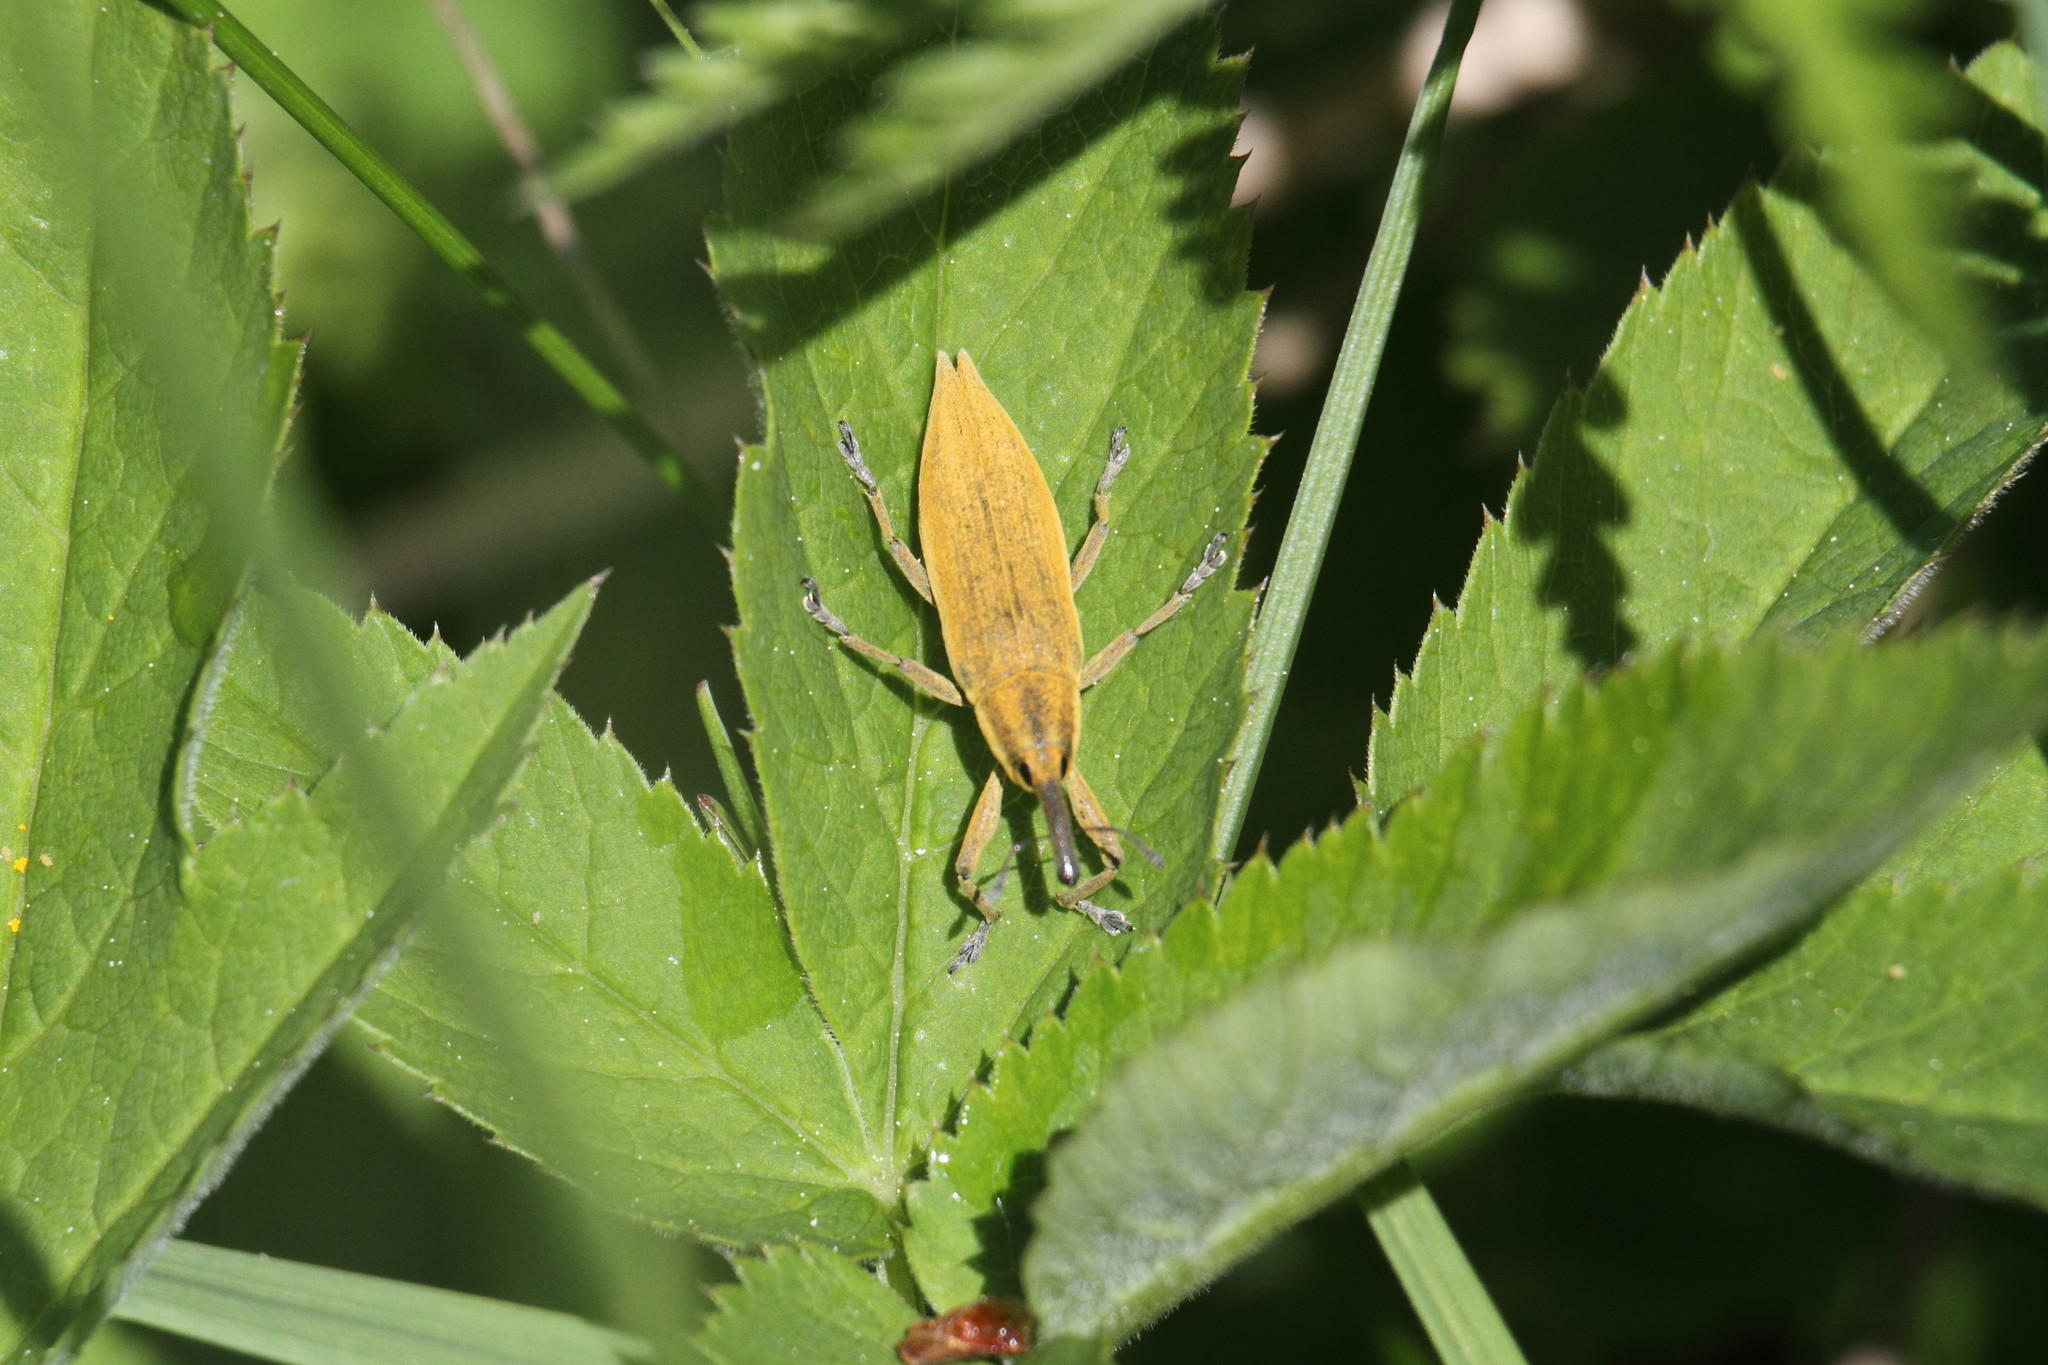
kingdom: Animalia
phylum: Arthropoda
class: Insecta
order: Coleoptera
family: Curculionidae
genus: Lixus
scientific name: Lixus iridis
